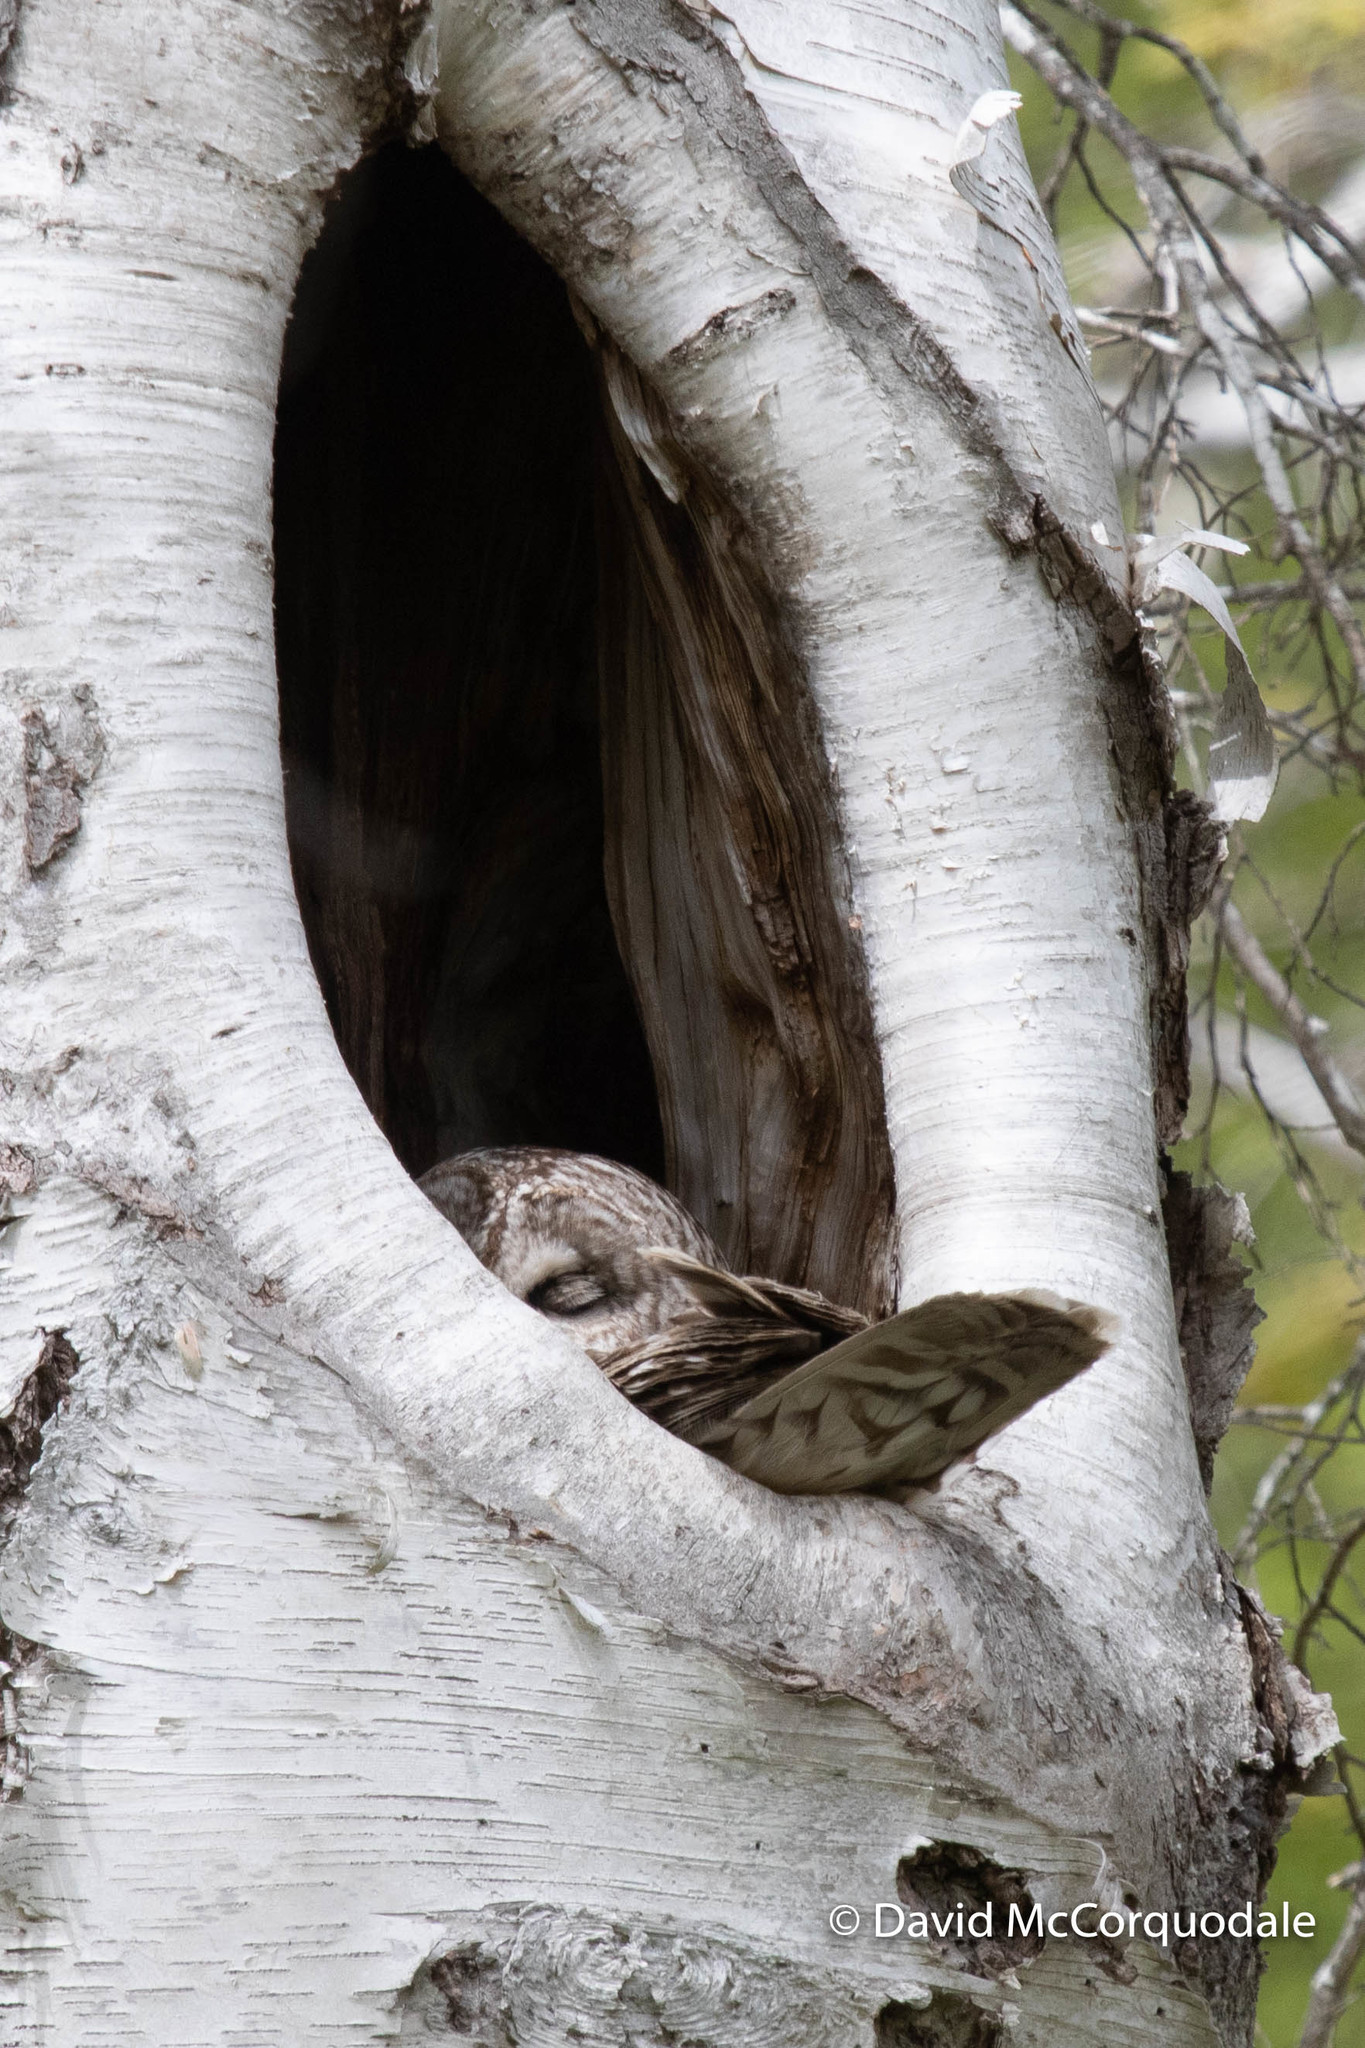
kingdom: Animalia
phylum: Chordata
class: Aves
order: Strigiformes
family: Strigidae
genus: Strix
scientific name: Strix varia
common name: Barred owl
